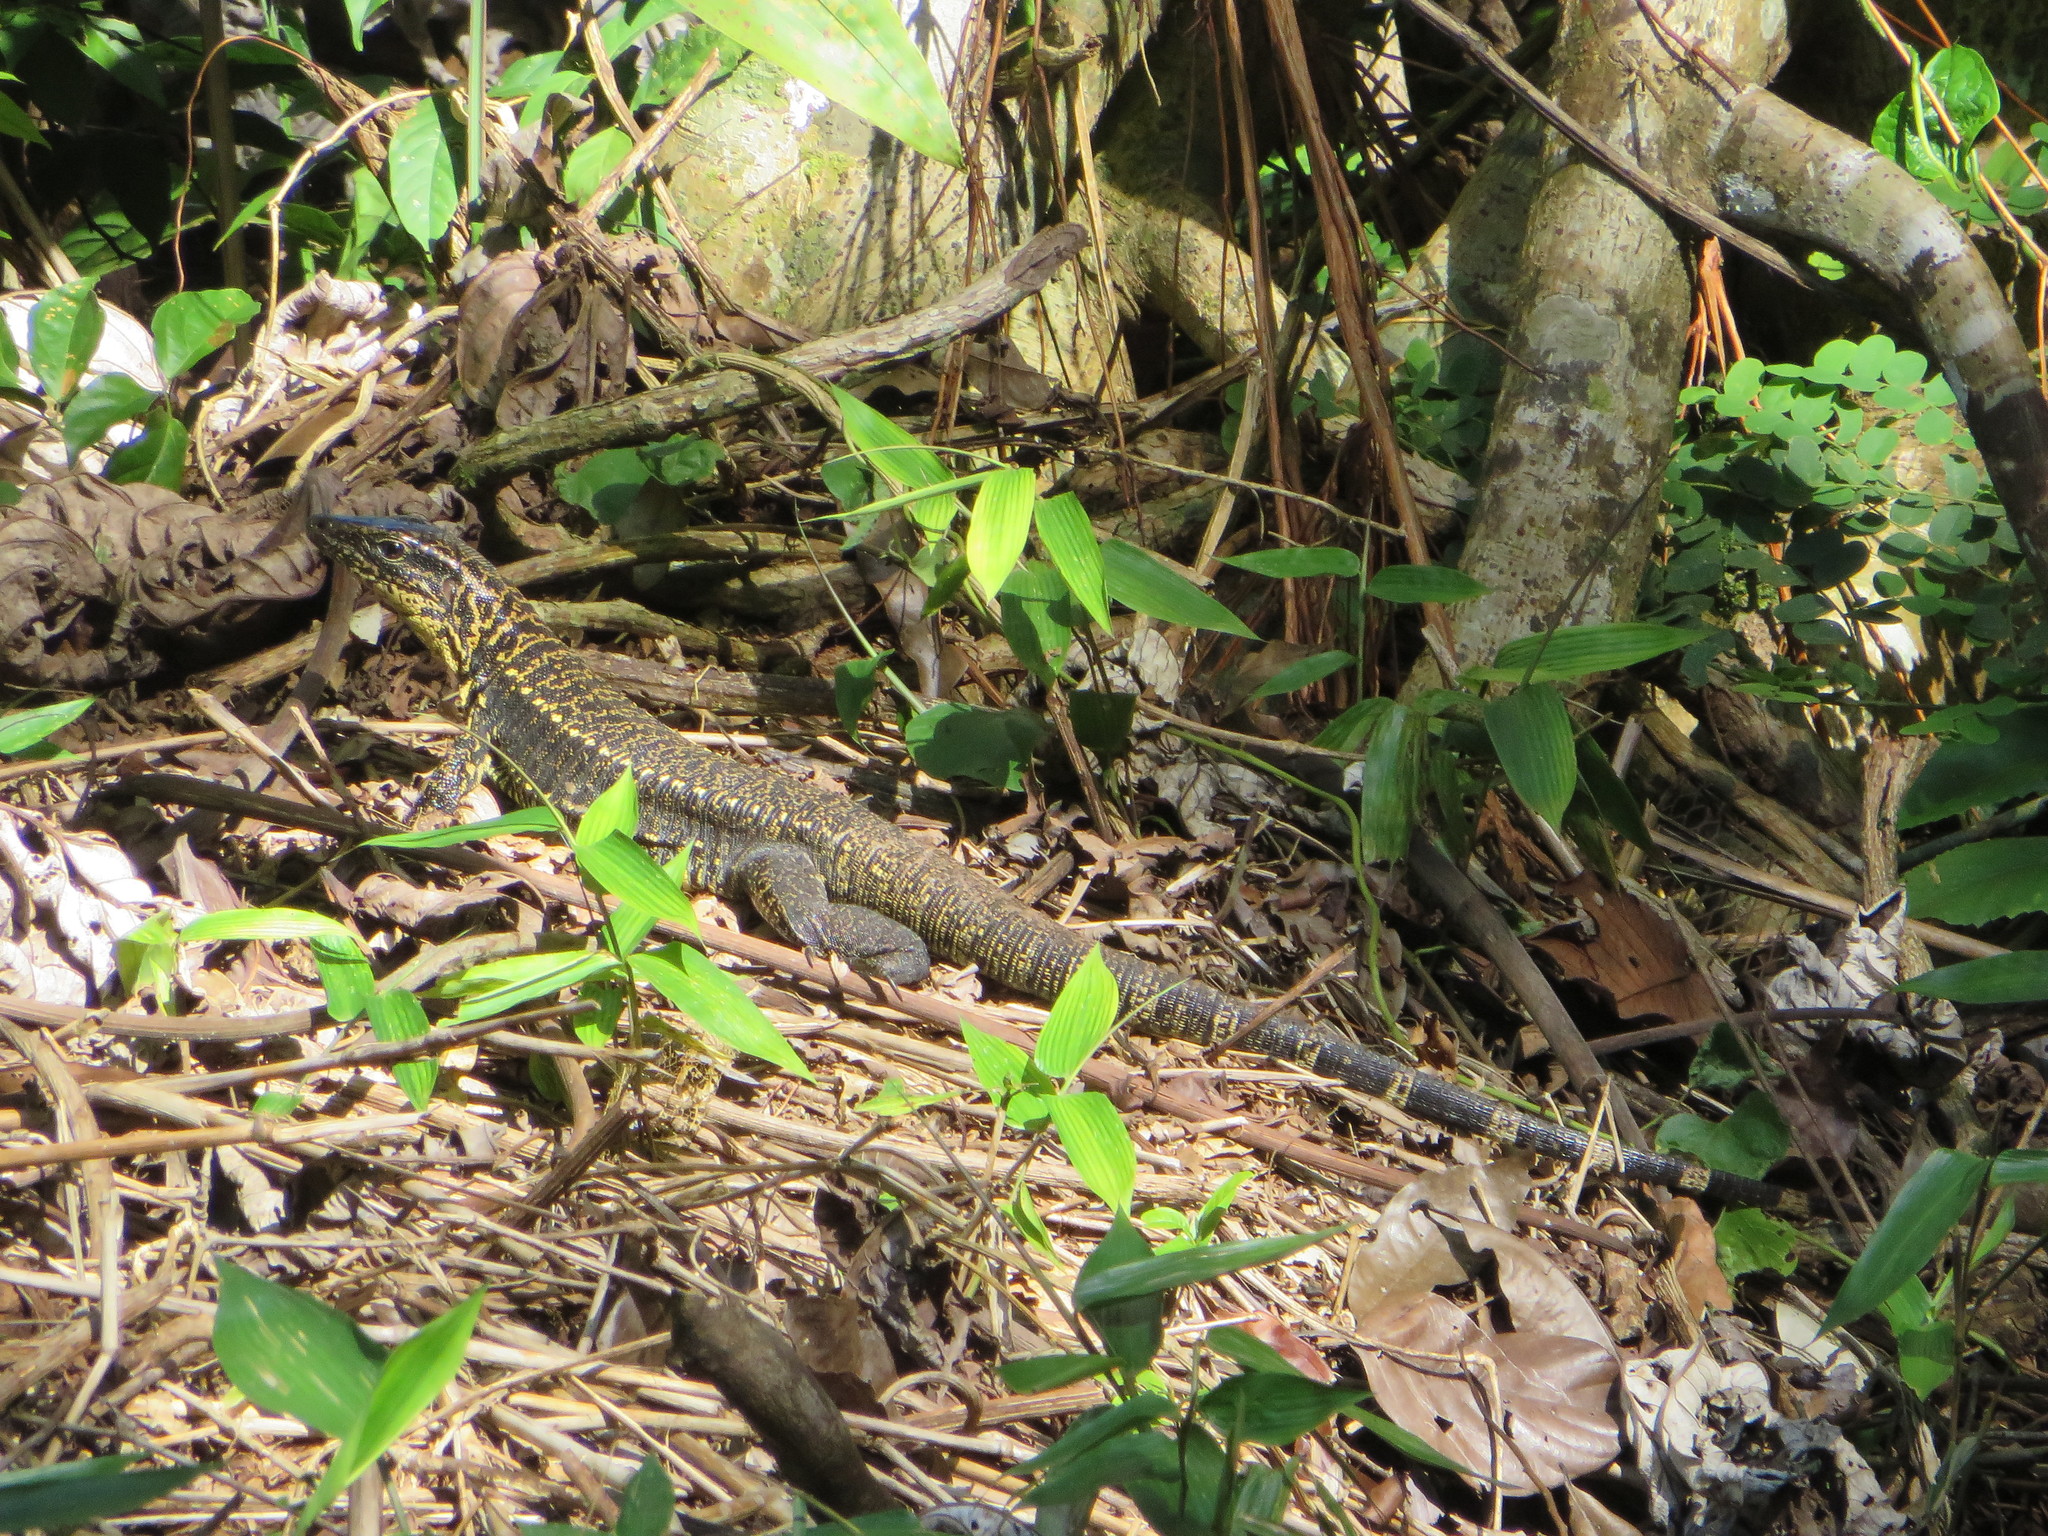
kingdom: Animalia
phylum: Chordata
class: Squamata
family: Teiidae
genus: Tupinambis
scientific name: Tupinambis cuzcoensis
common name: Cusco tegu lizard
